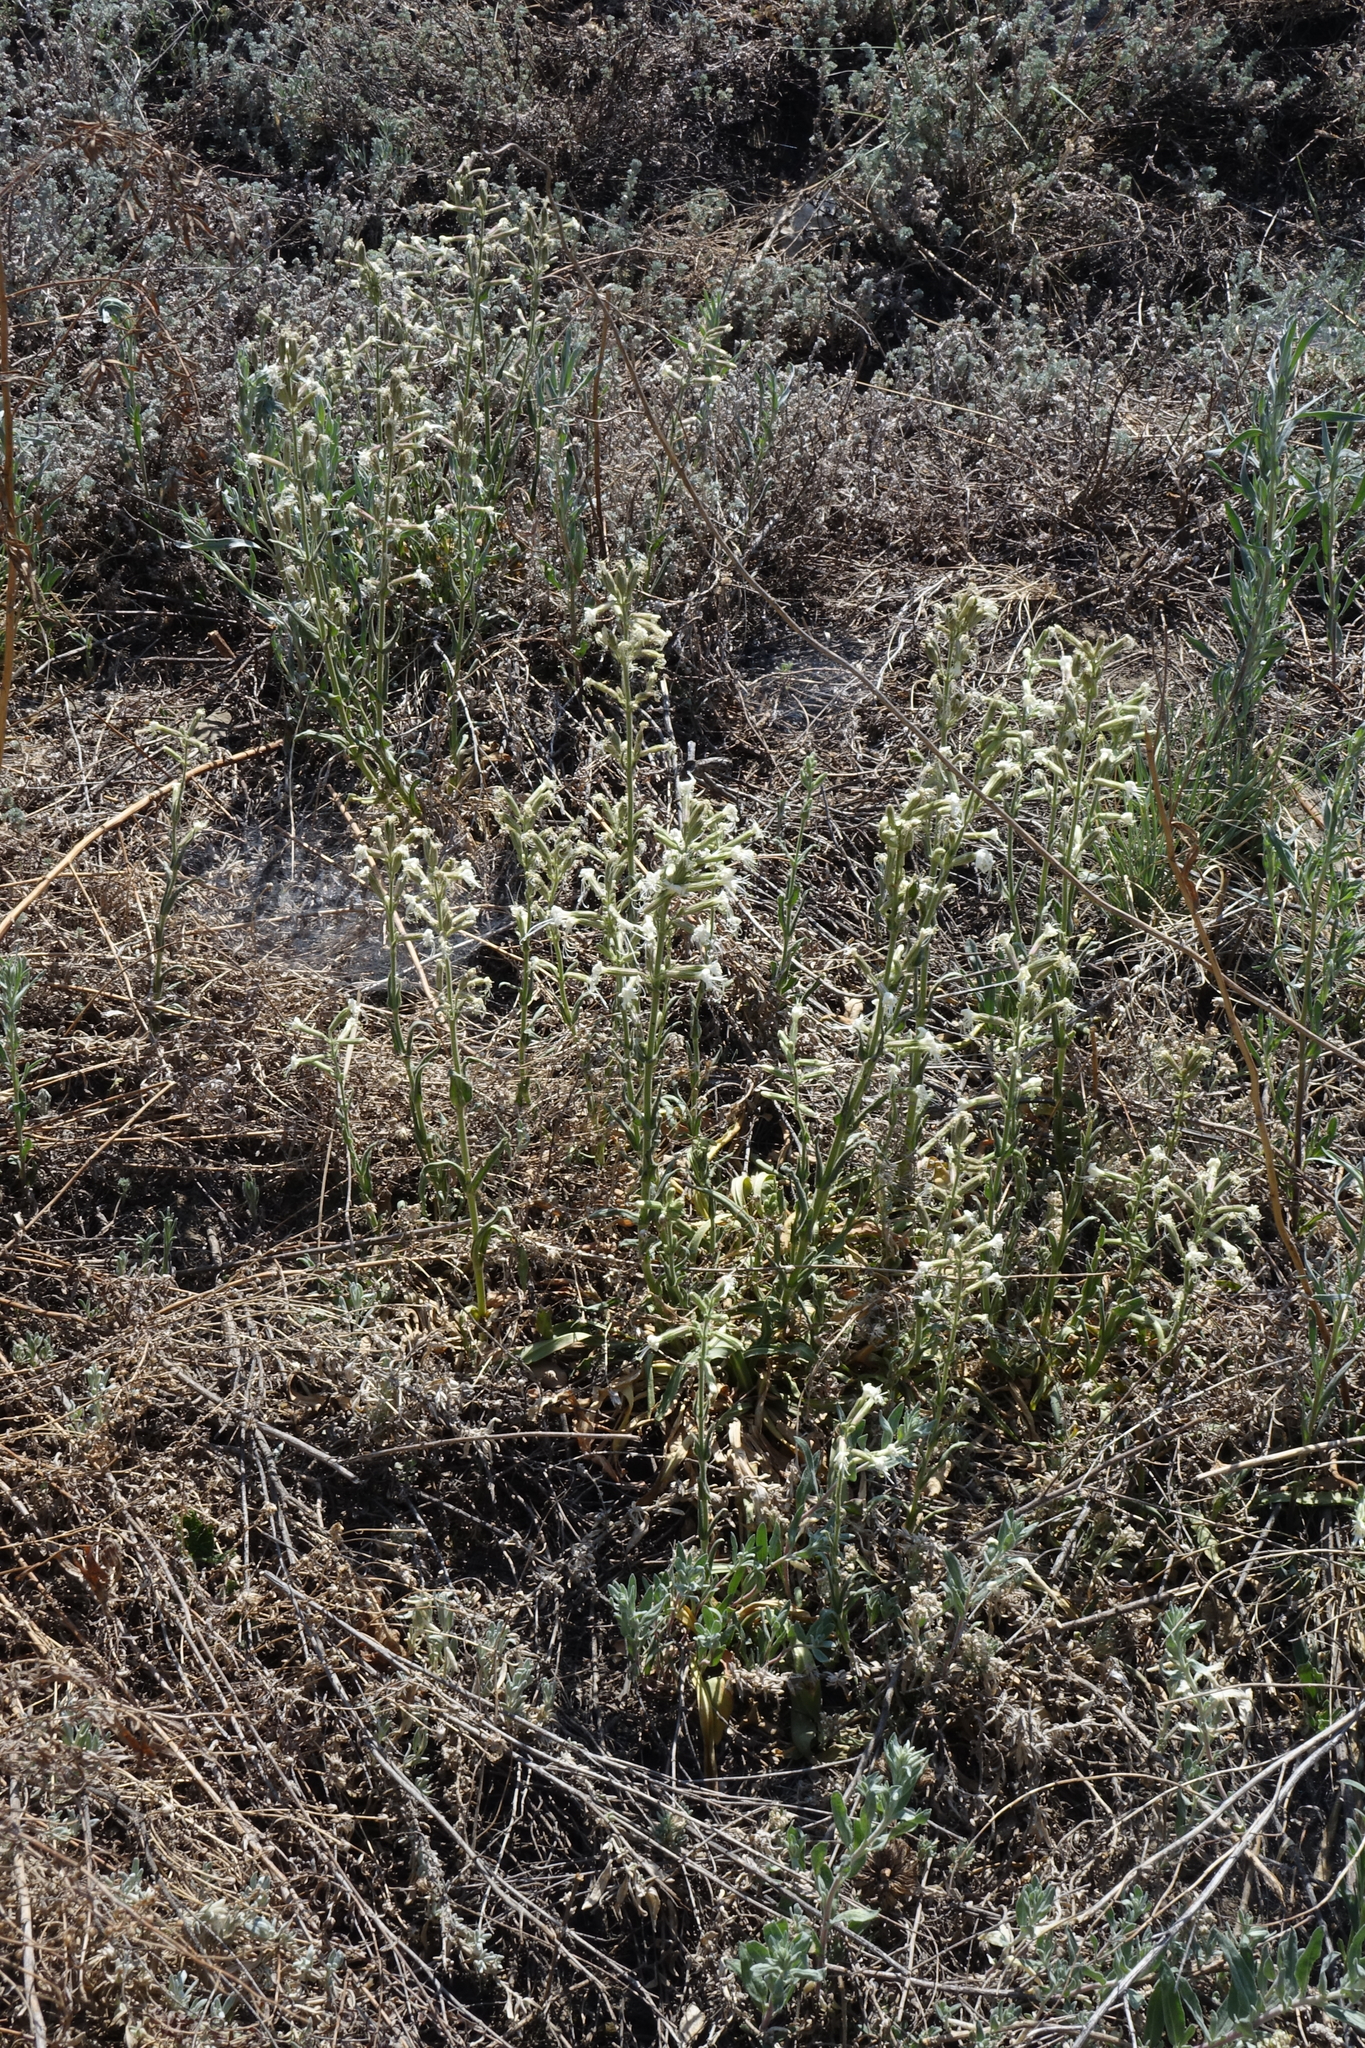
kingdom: Plantae
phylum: Tracheophyta
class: Magnoliopsida
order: Caryophyllales
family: Caryophyllaceae
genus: Silene
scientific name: Silene viscosa
